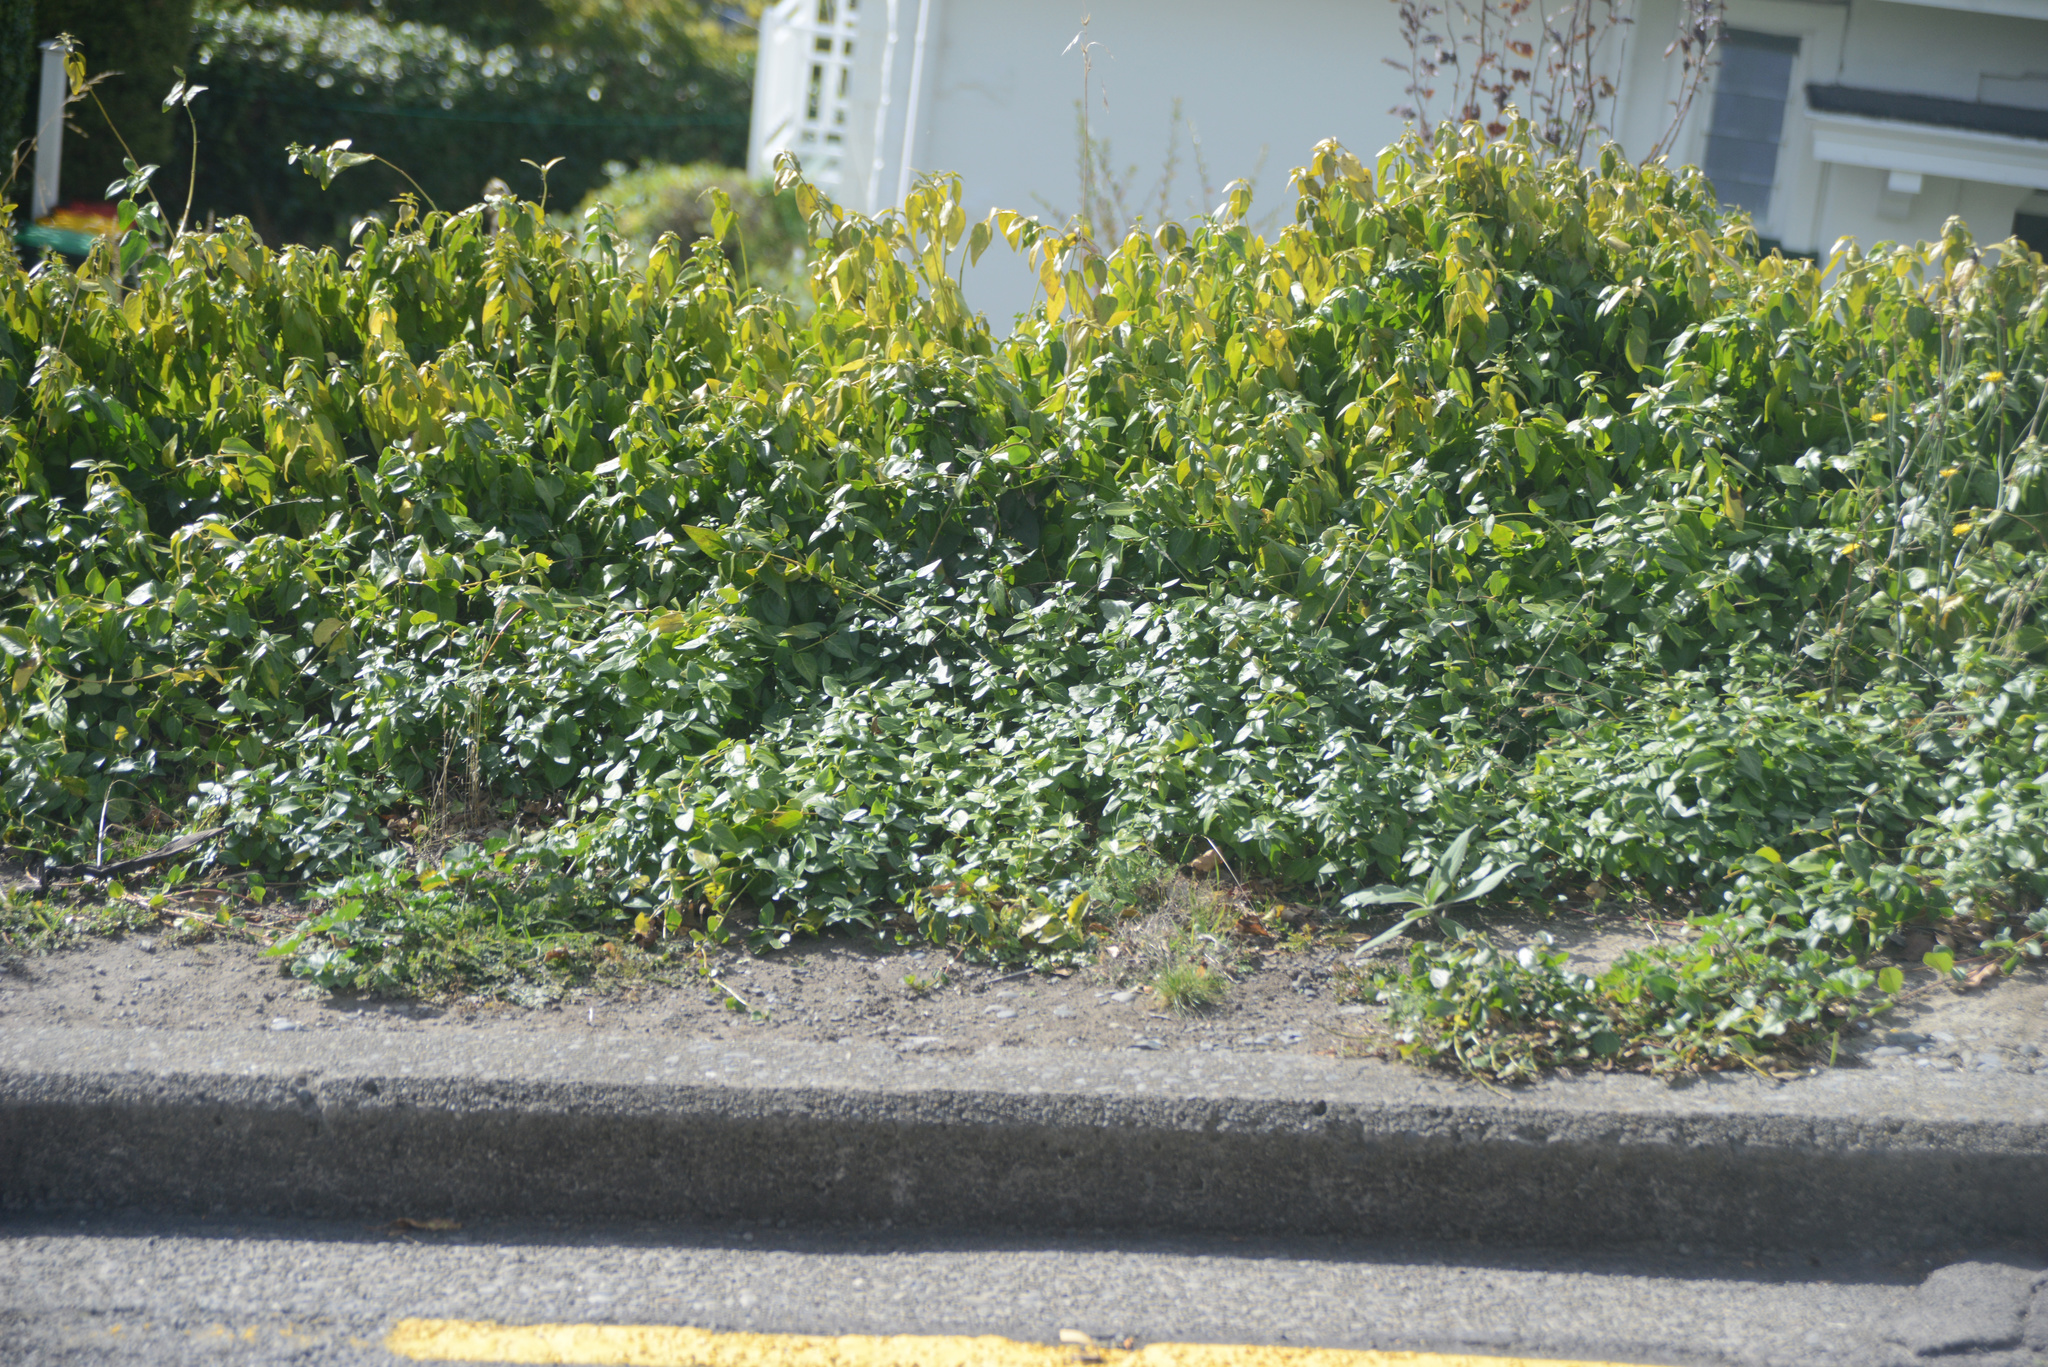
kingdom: Plantae
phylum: Tracheophyta
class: Magnoliopsida
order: Gentianales
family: Apocynaceae
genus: Vinca
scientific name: Vinca major
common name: Greater periwinkle
